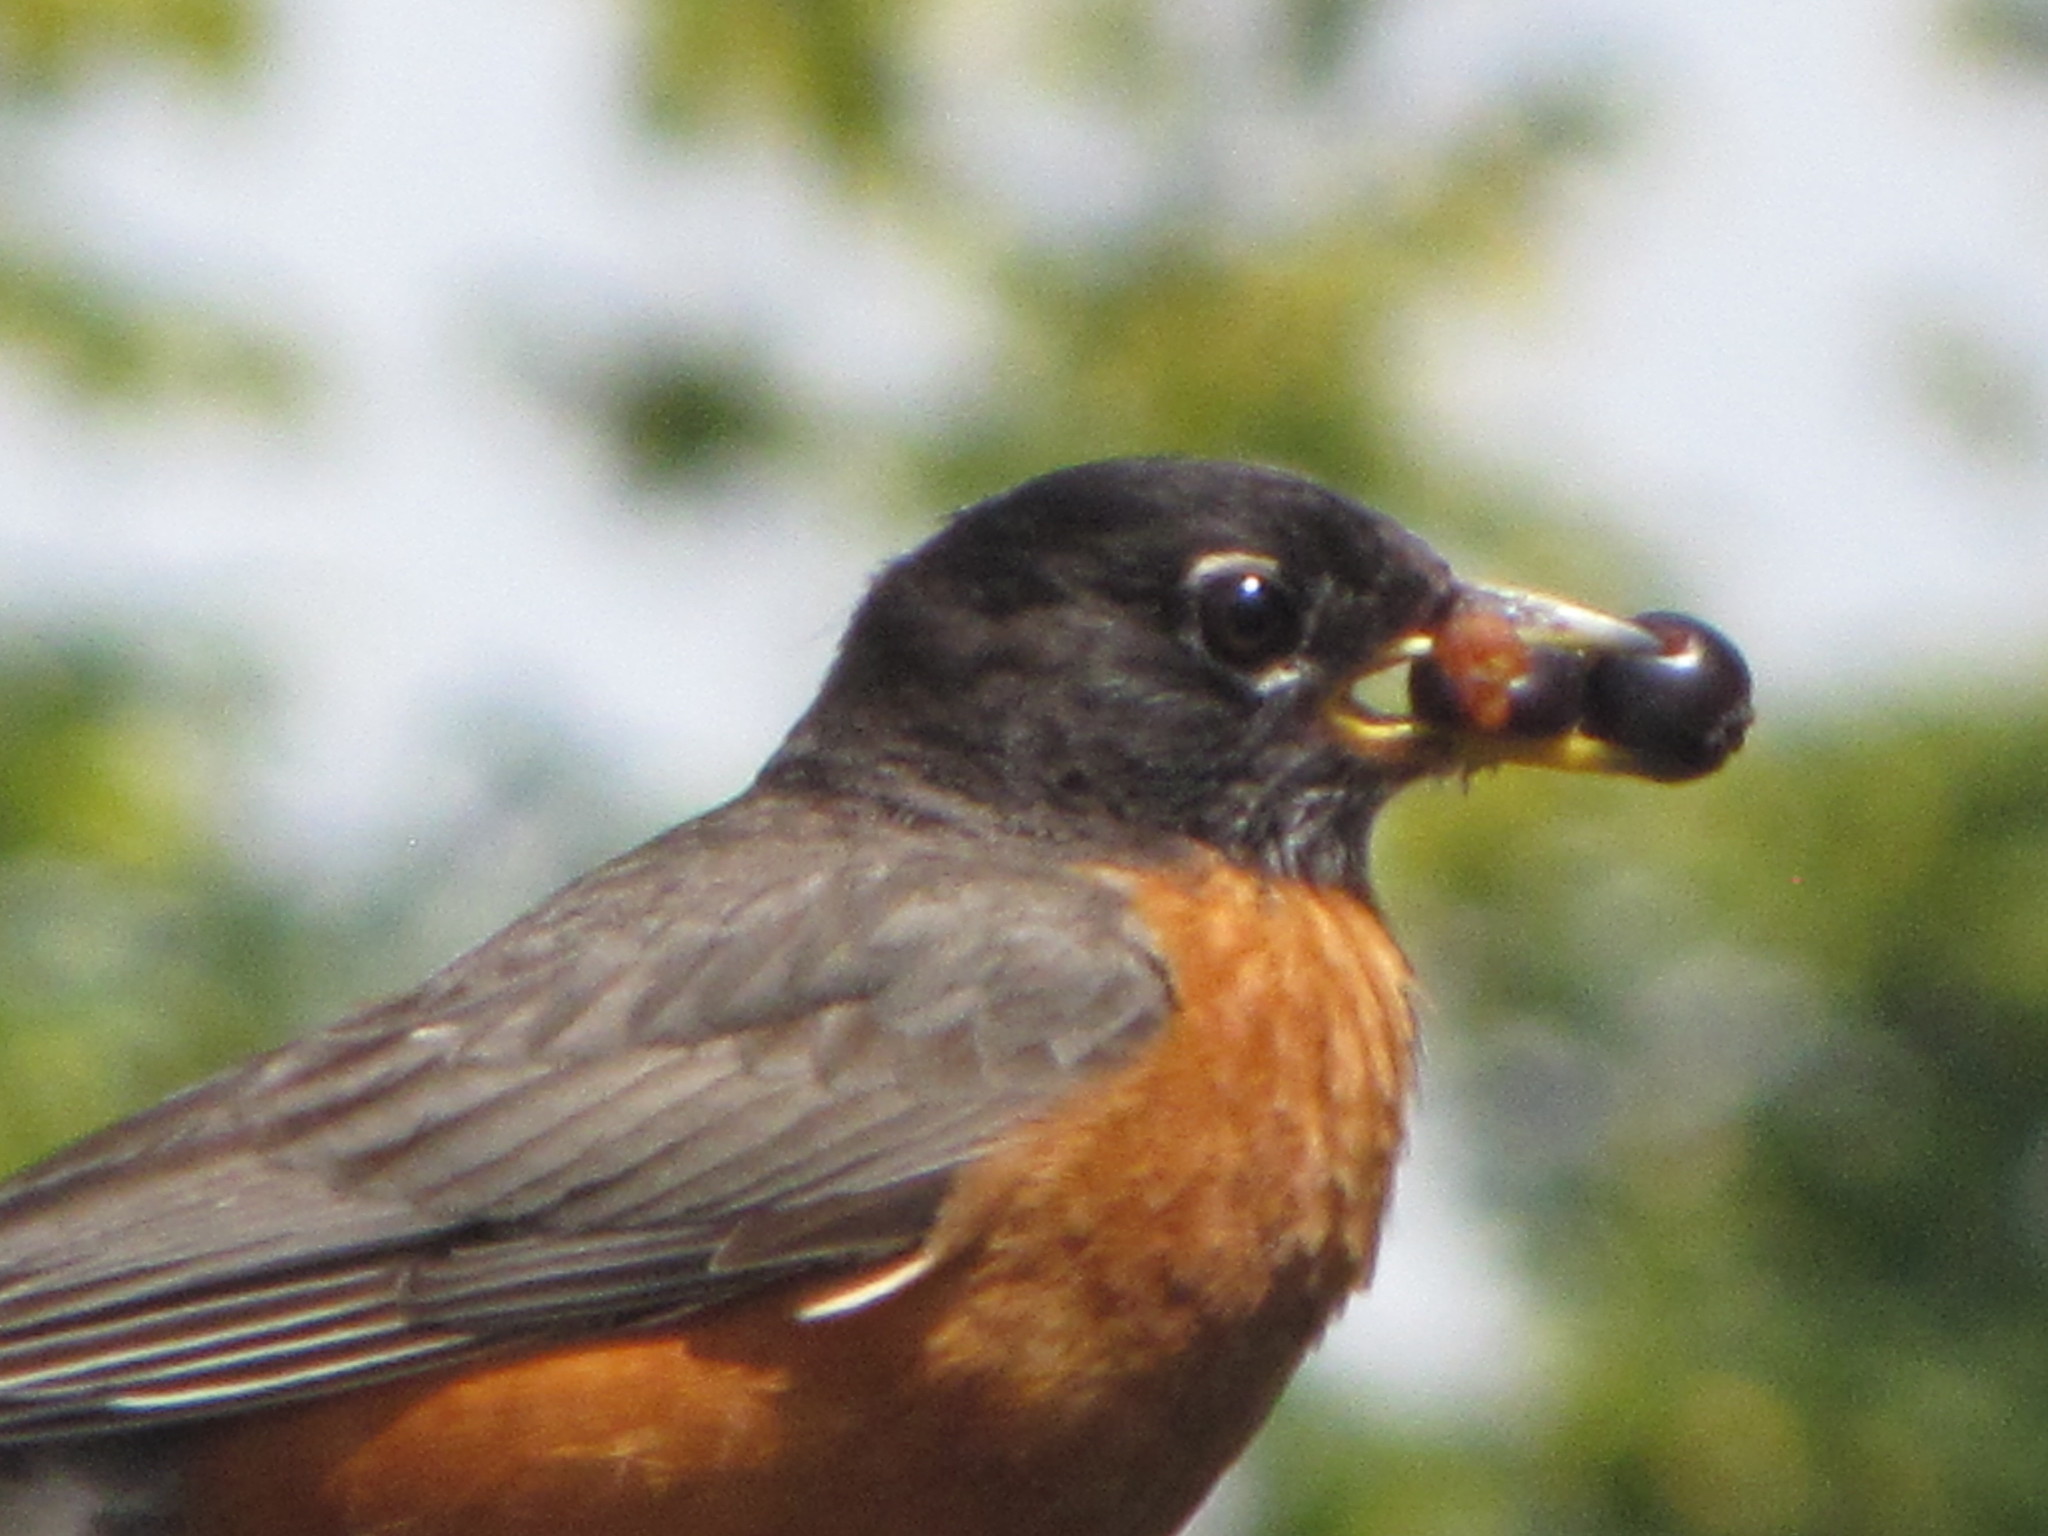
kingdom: Animalia
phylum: Chordata
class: Aves
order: Passeriformes
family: Turdidae
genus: Turdus
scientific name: Turdus migratorius
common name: American robin
